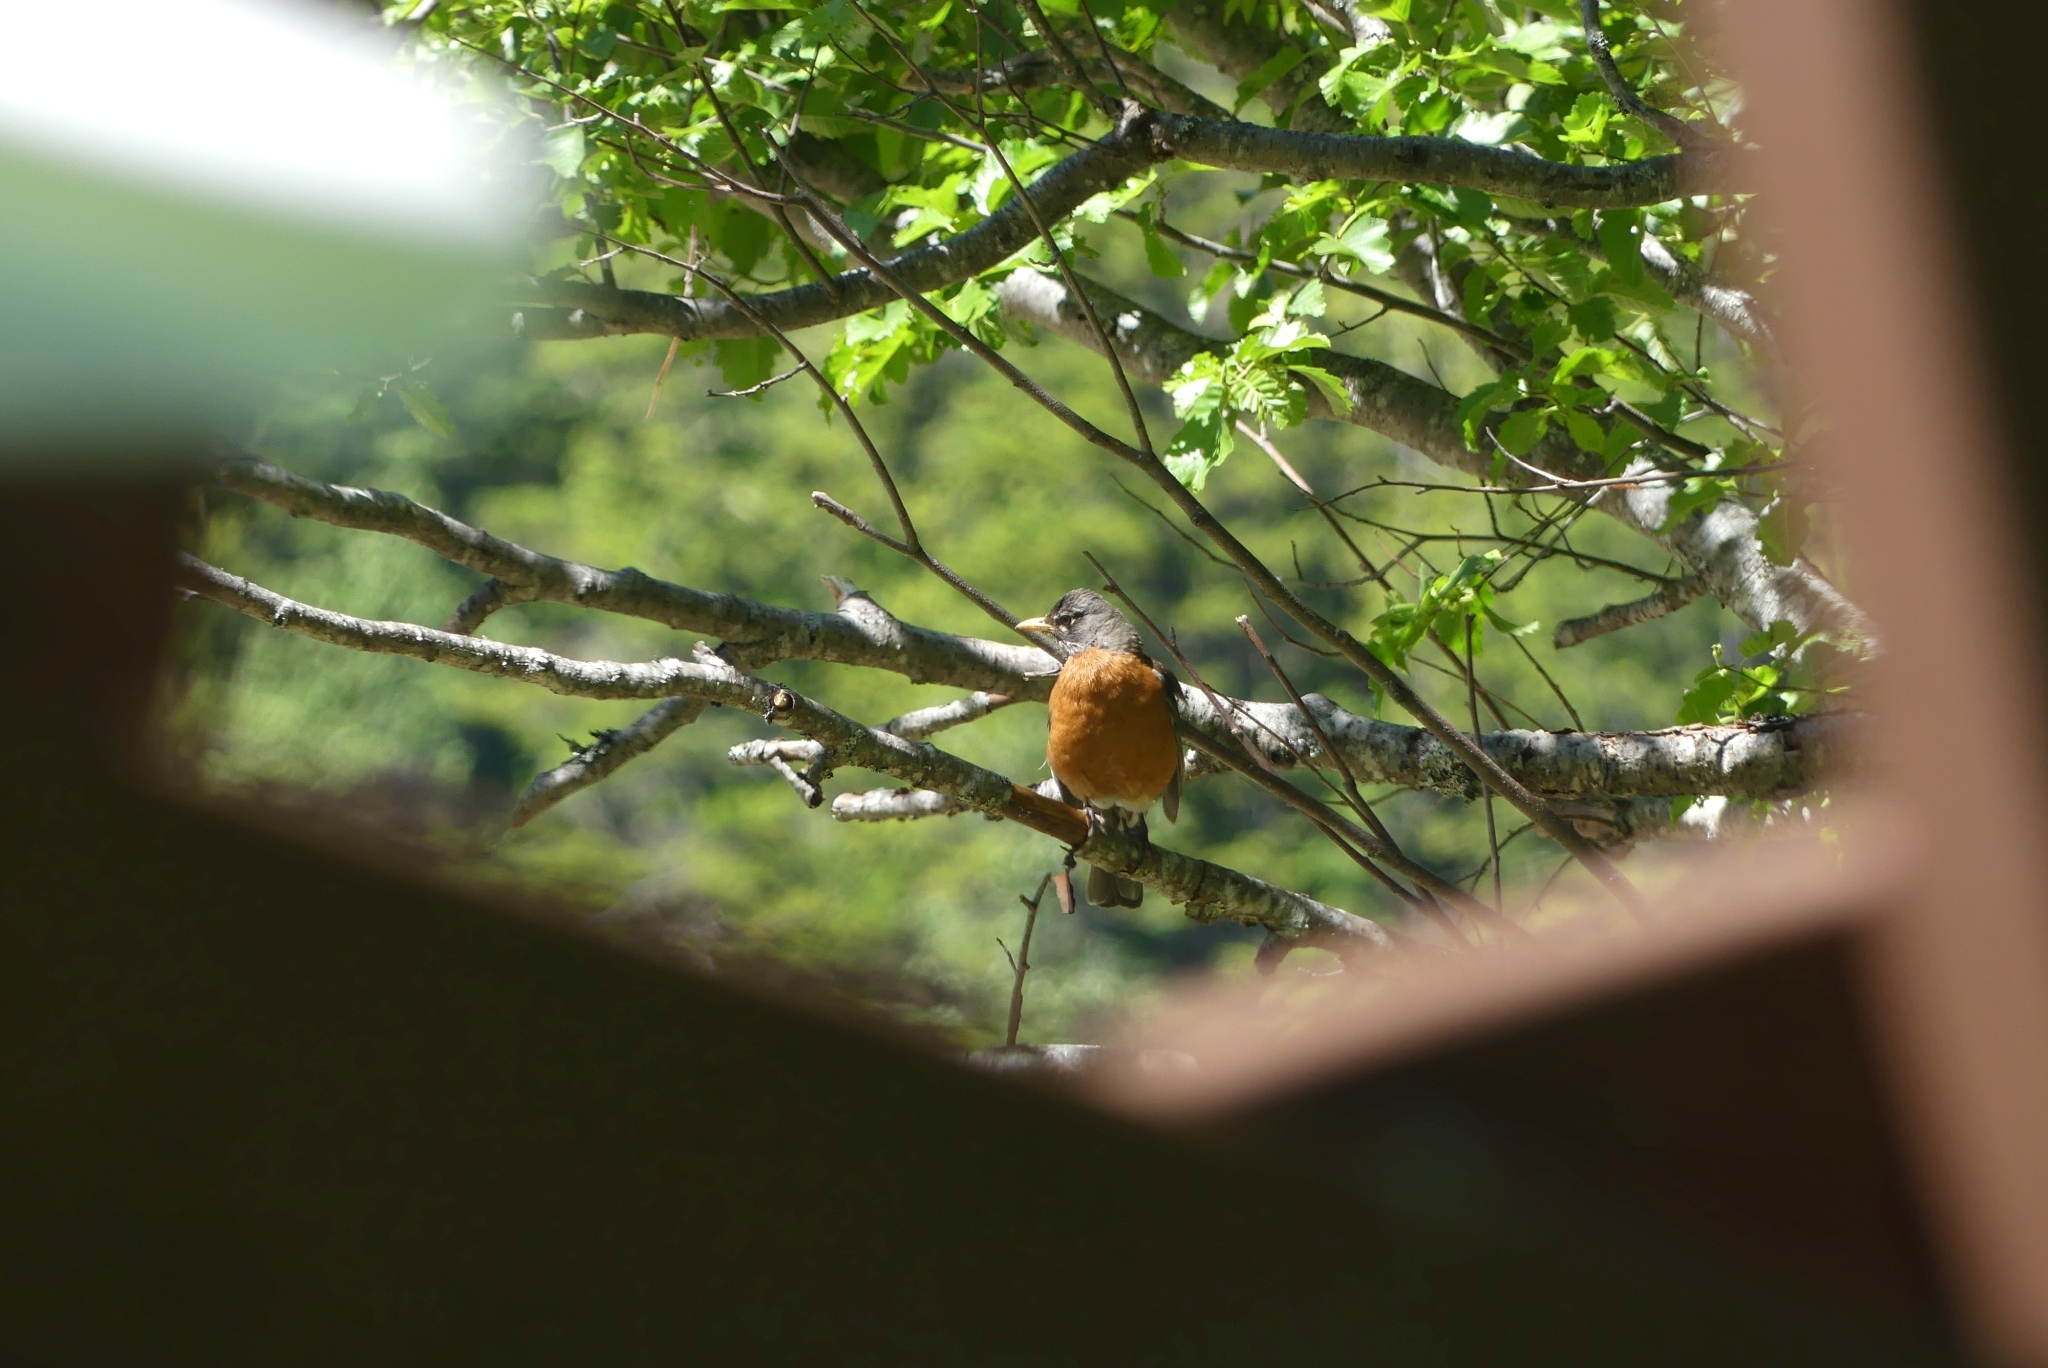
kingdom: Animalia
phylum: Chordata
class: Aves
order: Passeriformes
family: Turdidae
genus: Turdus
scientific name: Turdus migratorius
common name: American robin
